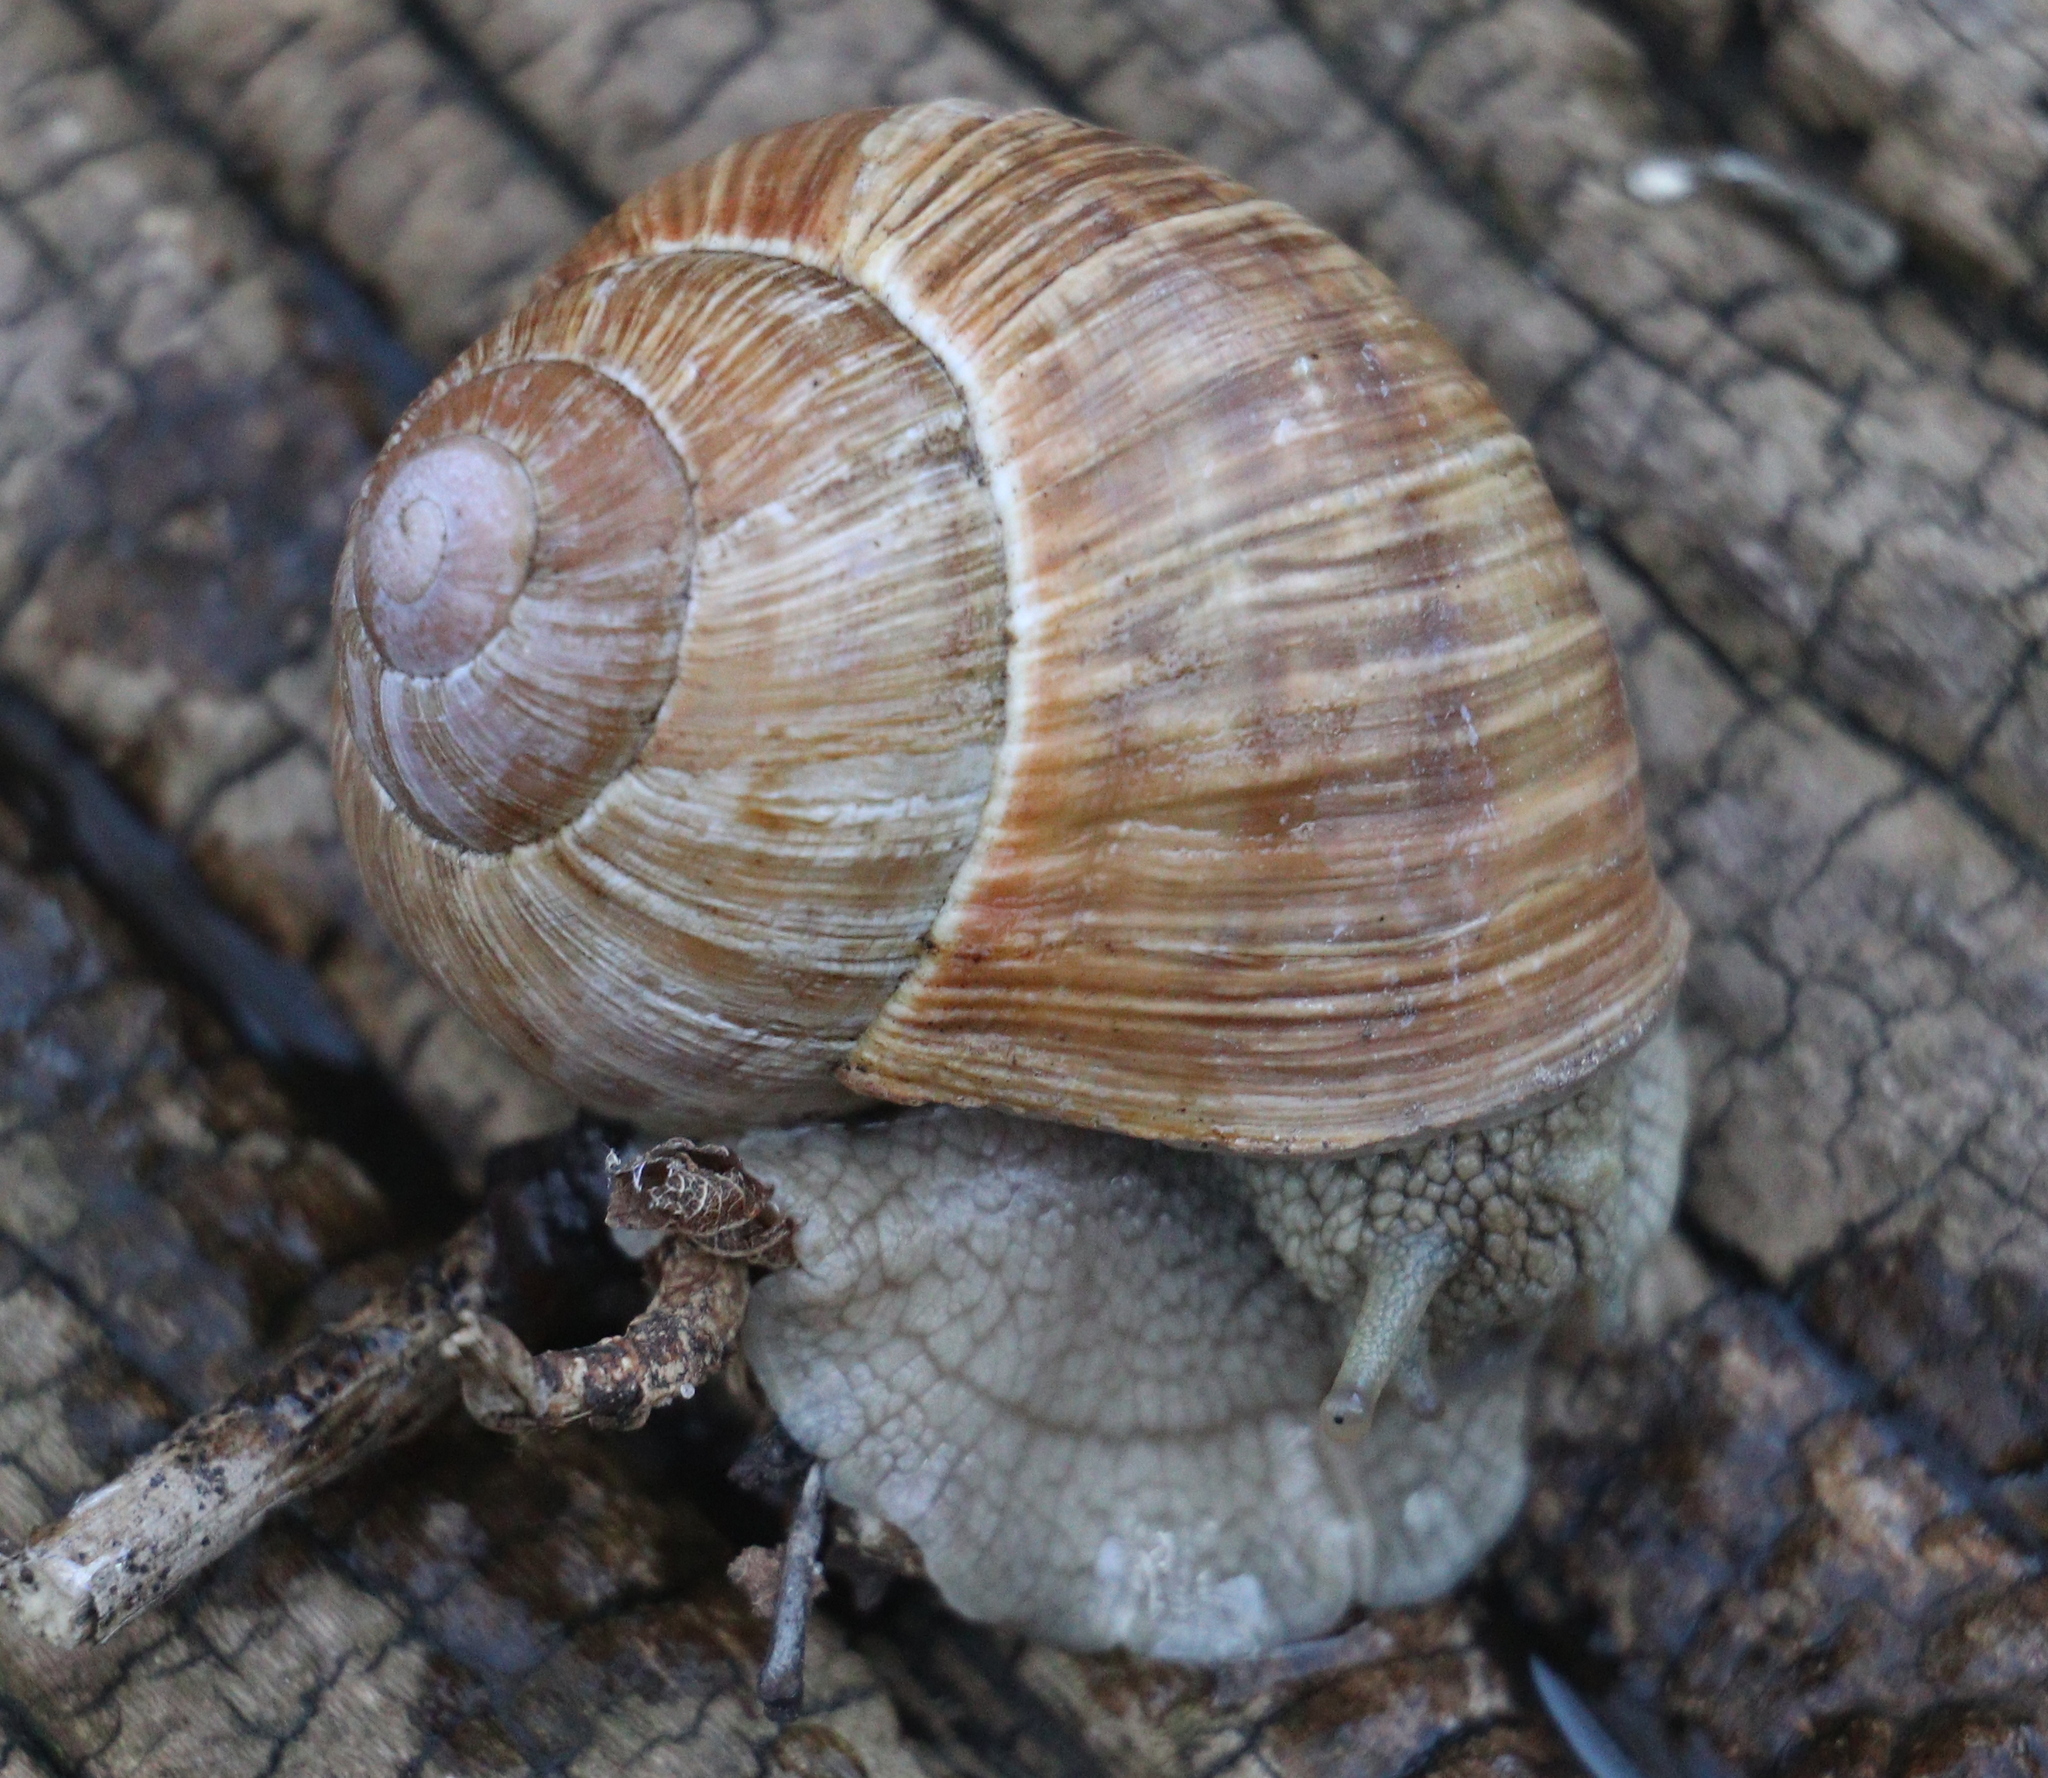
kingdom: Animalia
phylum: Mollusca
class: Gastropoda
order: Stylommatophora
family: Helicidae
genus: Helix
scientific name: Helix pomatia
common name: Roman snail
